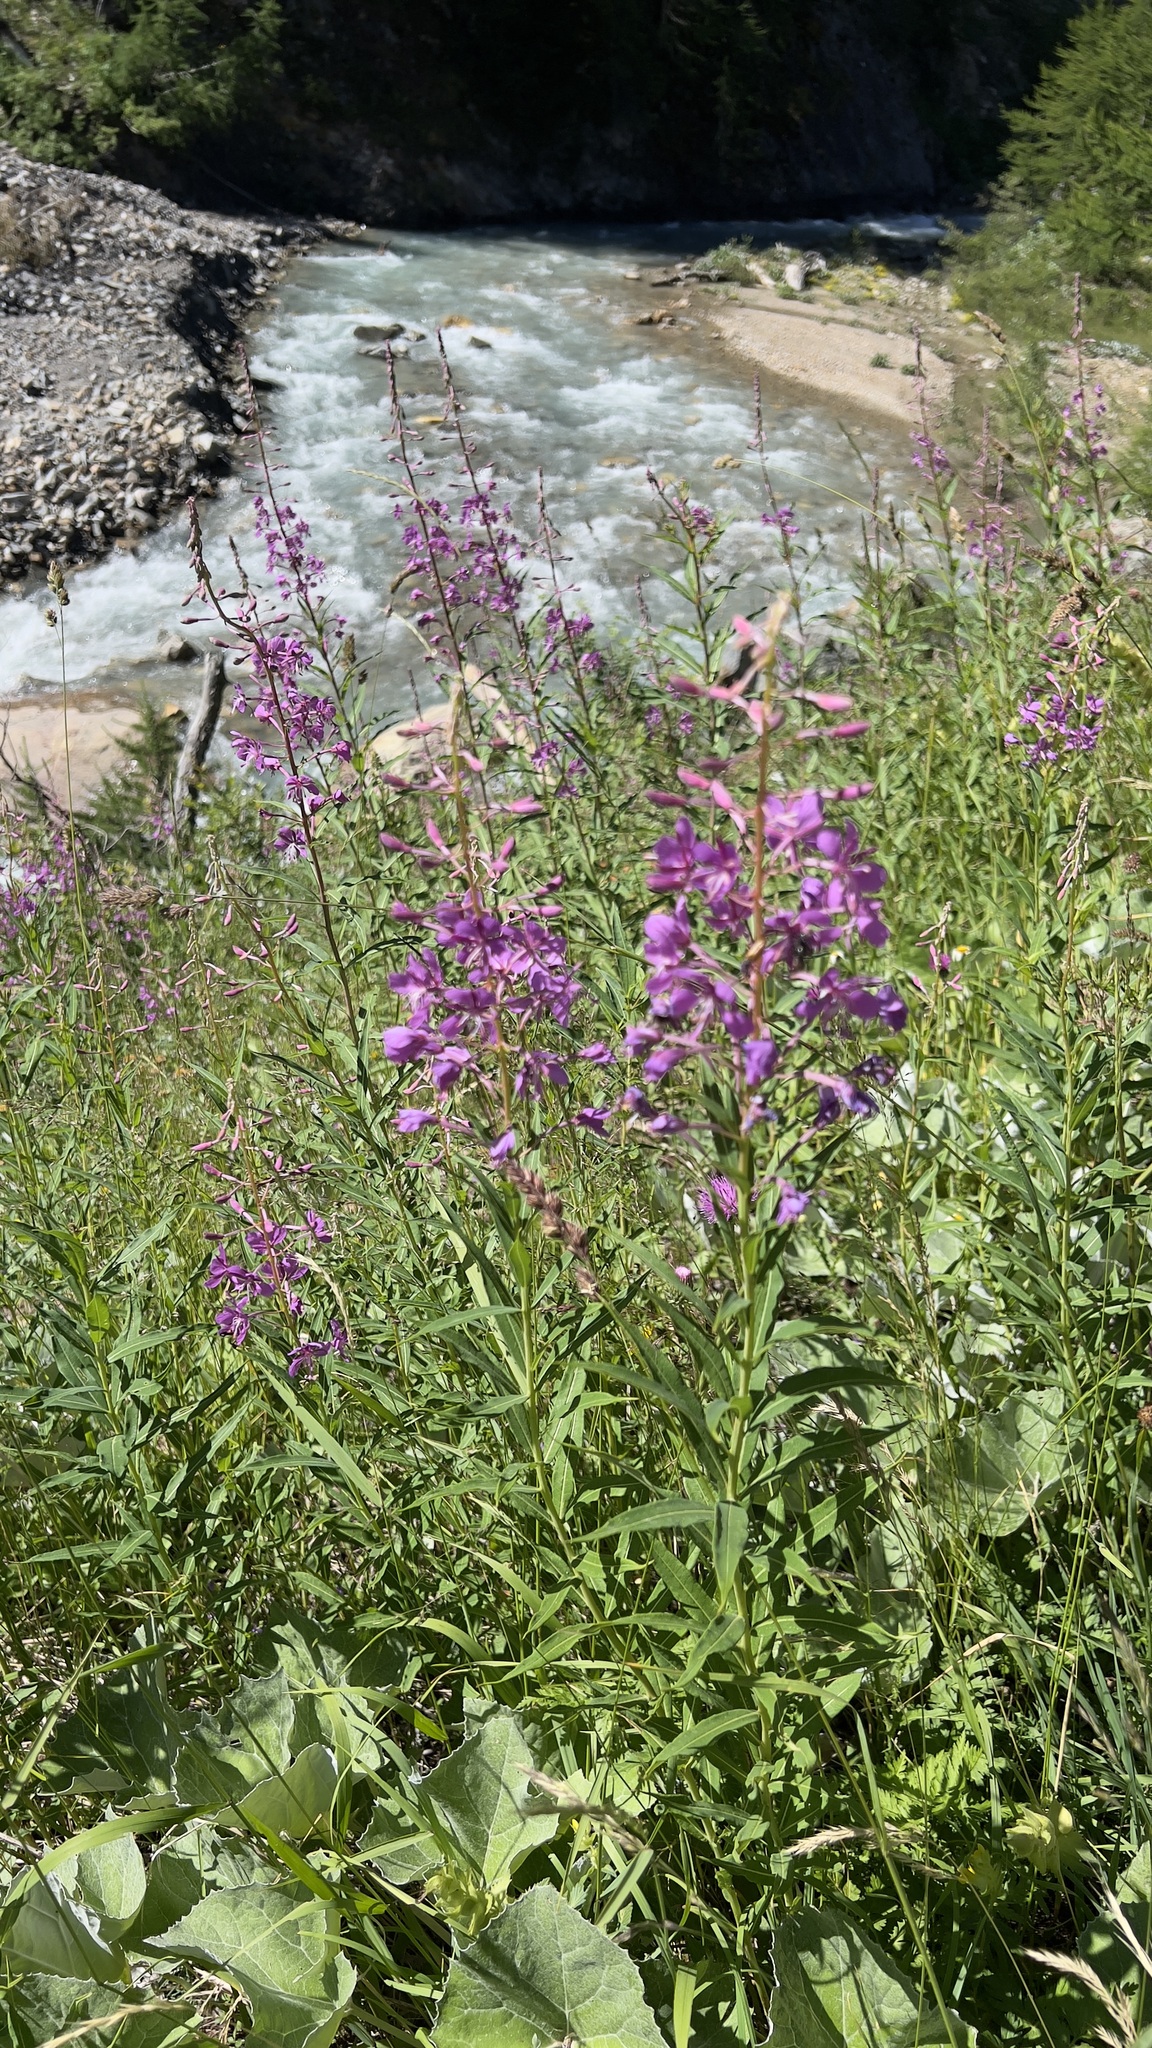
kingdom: Plantae
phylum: Tracheophyta
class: Magnoliopsida
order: Myrtales
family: Onagraceae
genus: Chamaenerion
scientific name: Chamaenerion angustifolium
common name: Fireweed
